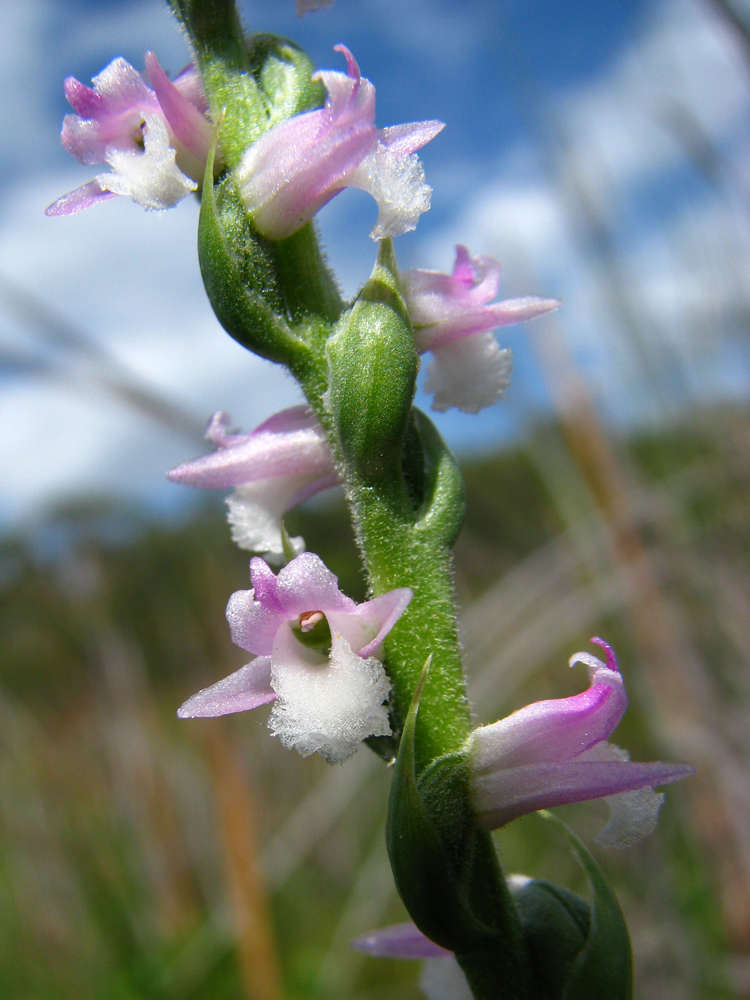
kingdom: Plantae
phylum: Tracheophyta
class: Liliopsida
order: Asparagales
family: Orchidaceae
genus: Spiranthes
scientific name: Spiranthes australis
